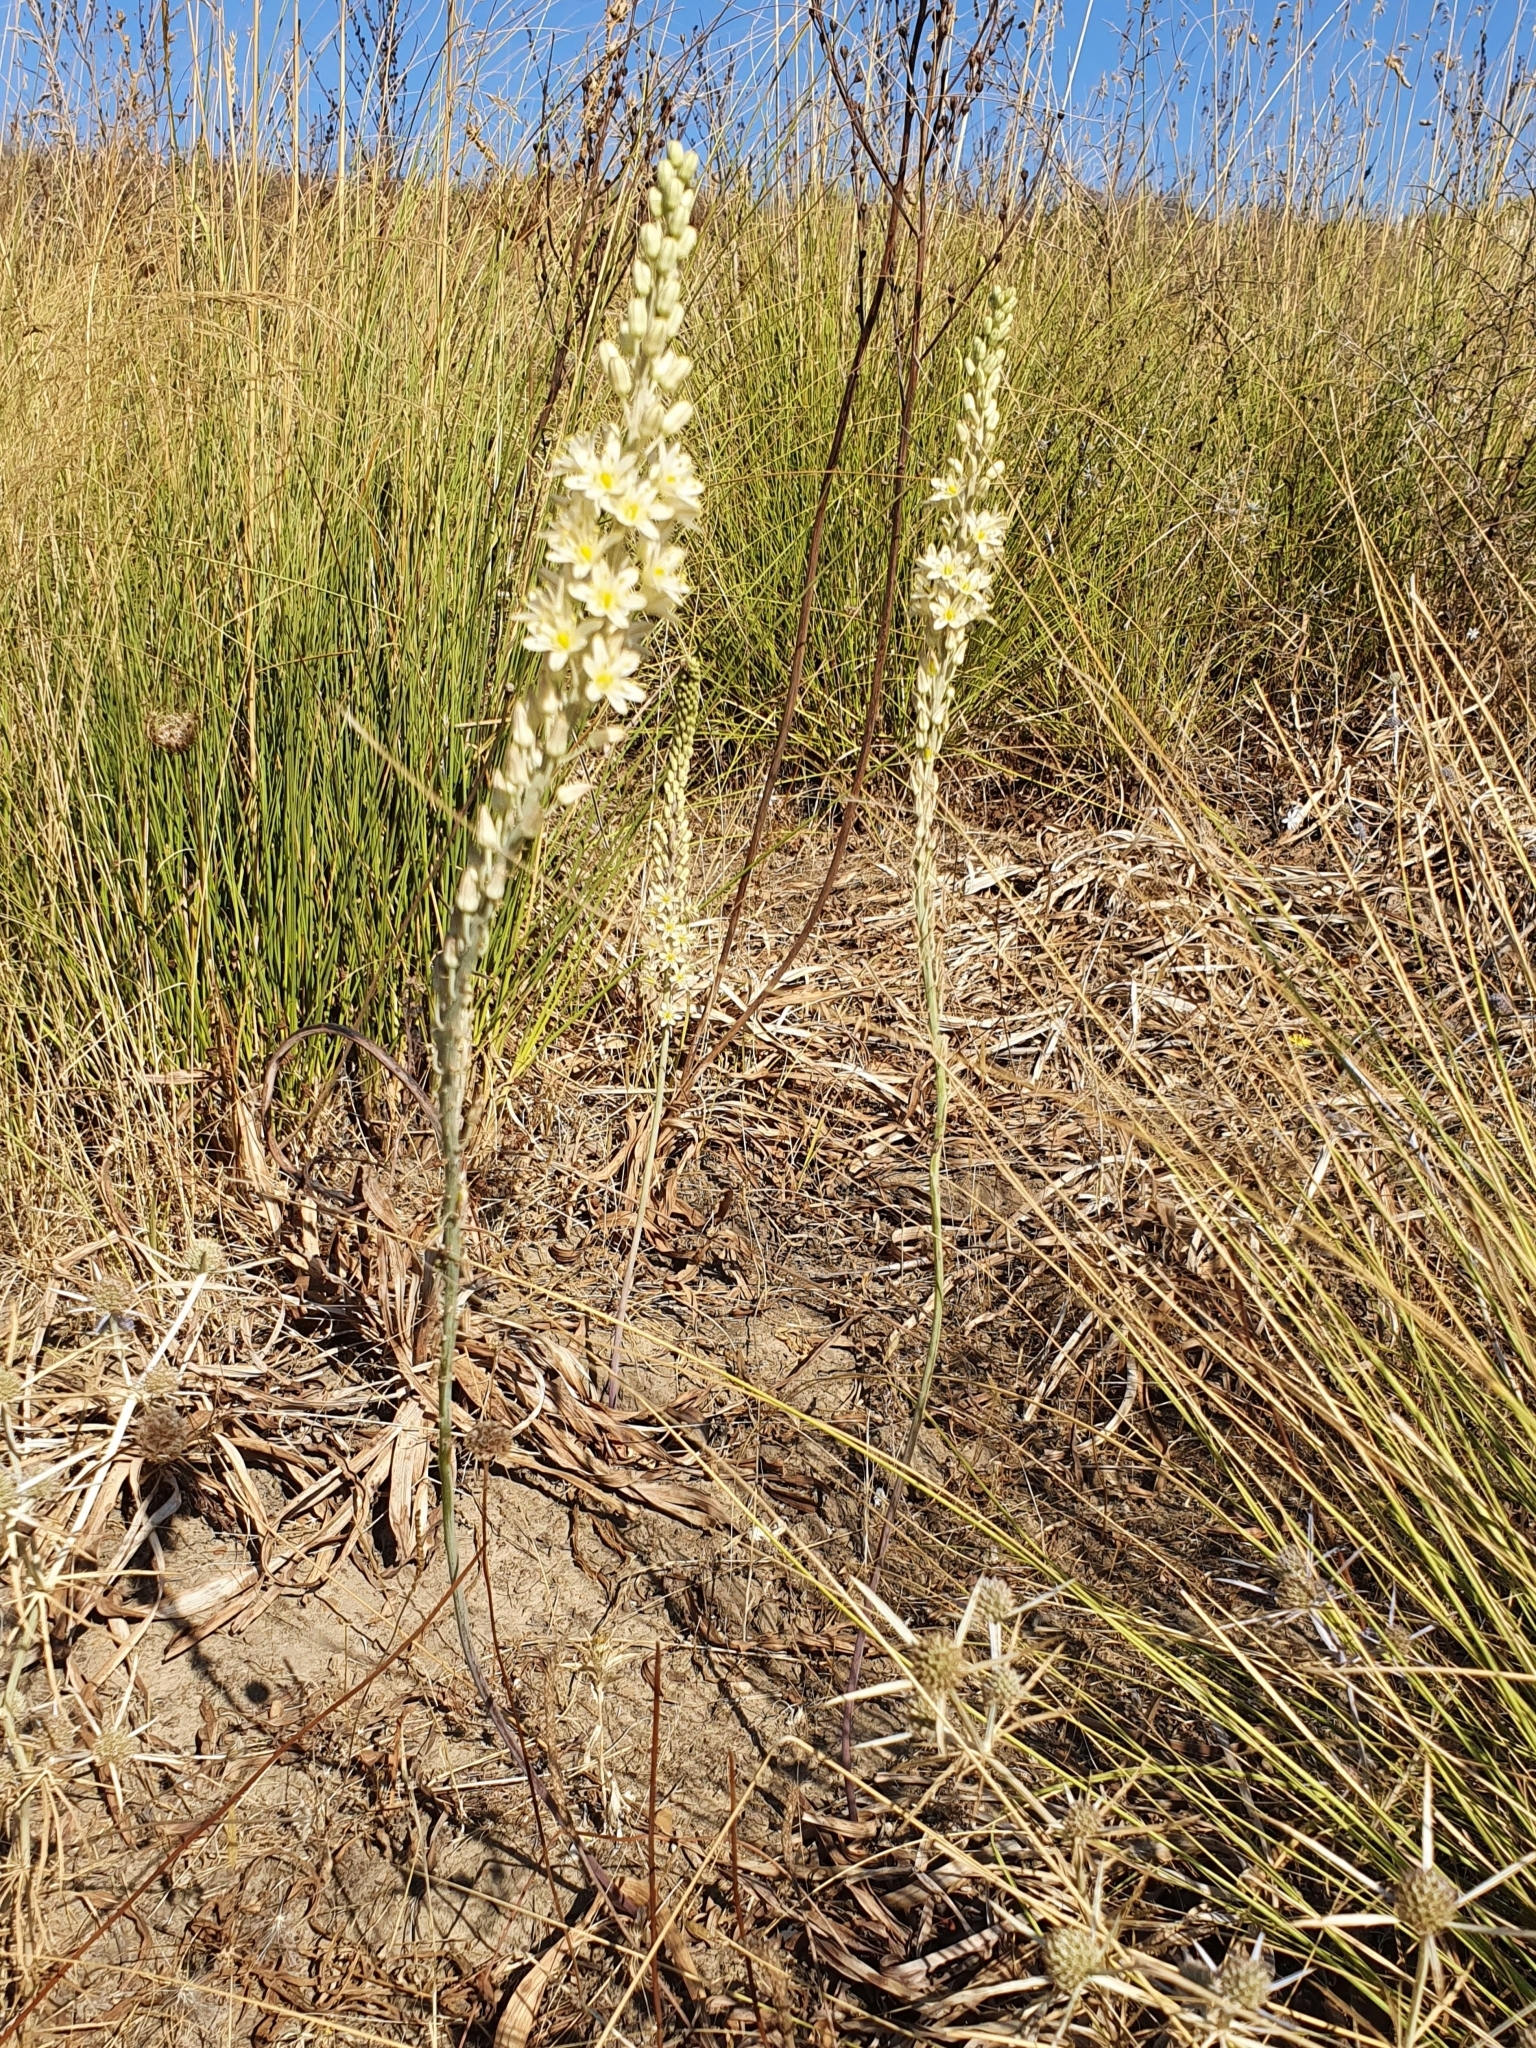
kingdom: Plantae
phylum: Tracheophyta
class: Liliopsida
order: Asparagales
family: Asparagaceae
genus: Drimia
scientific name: Drimia anthericoides
